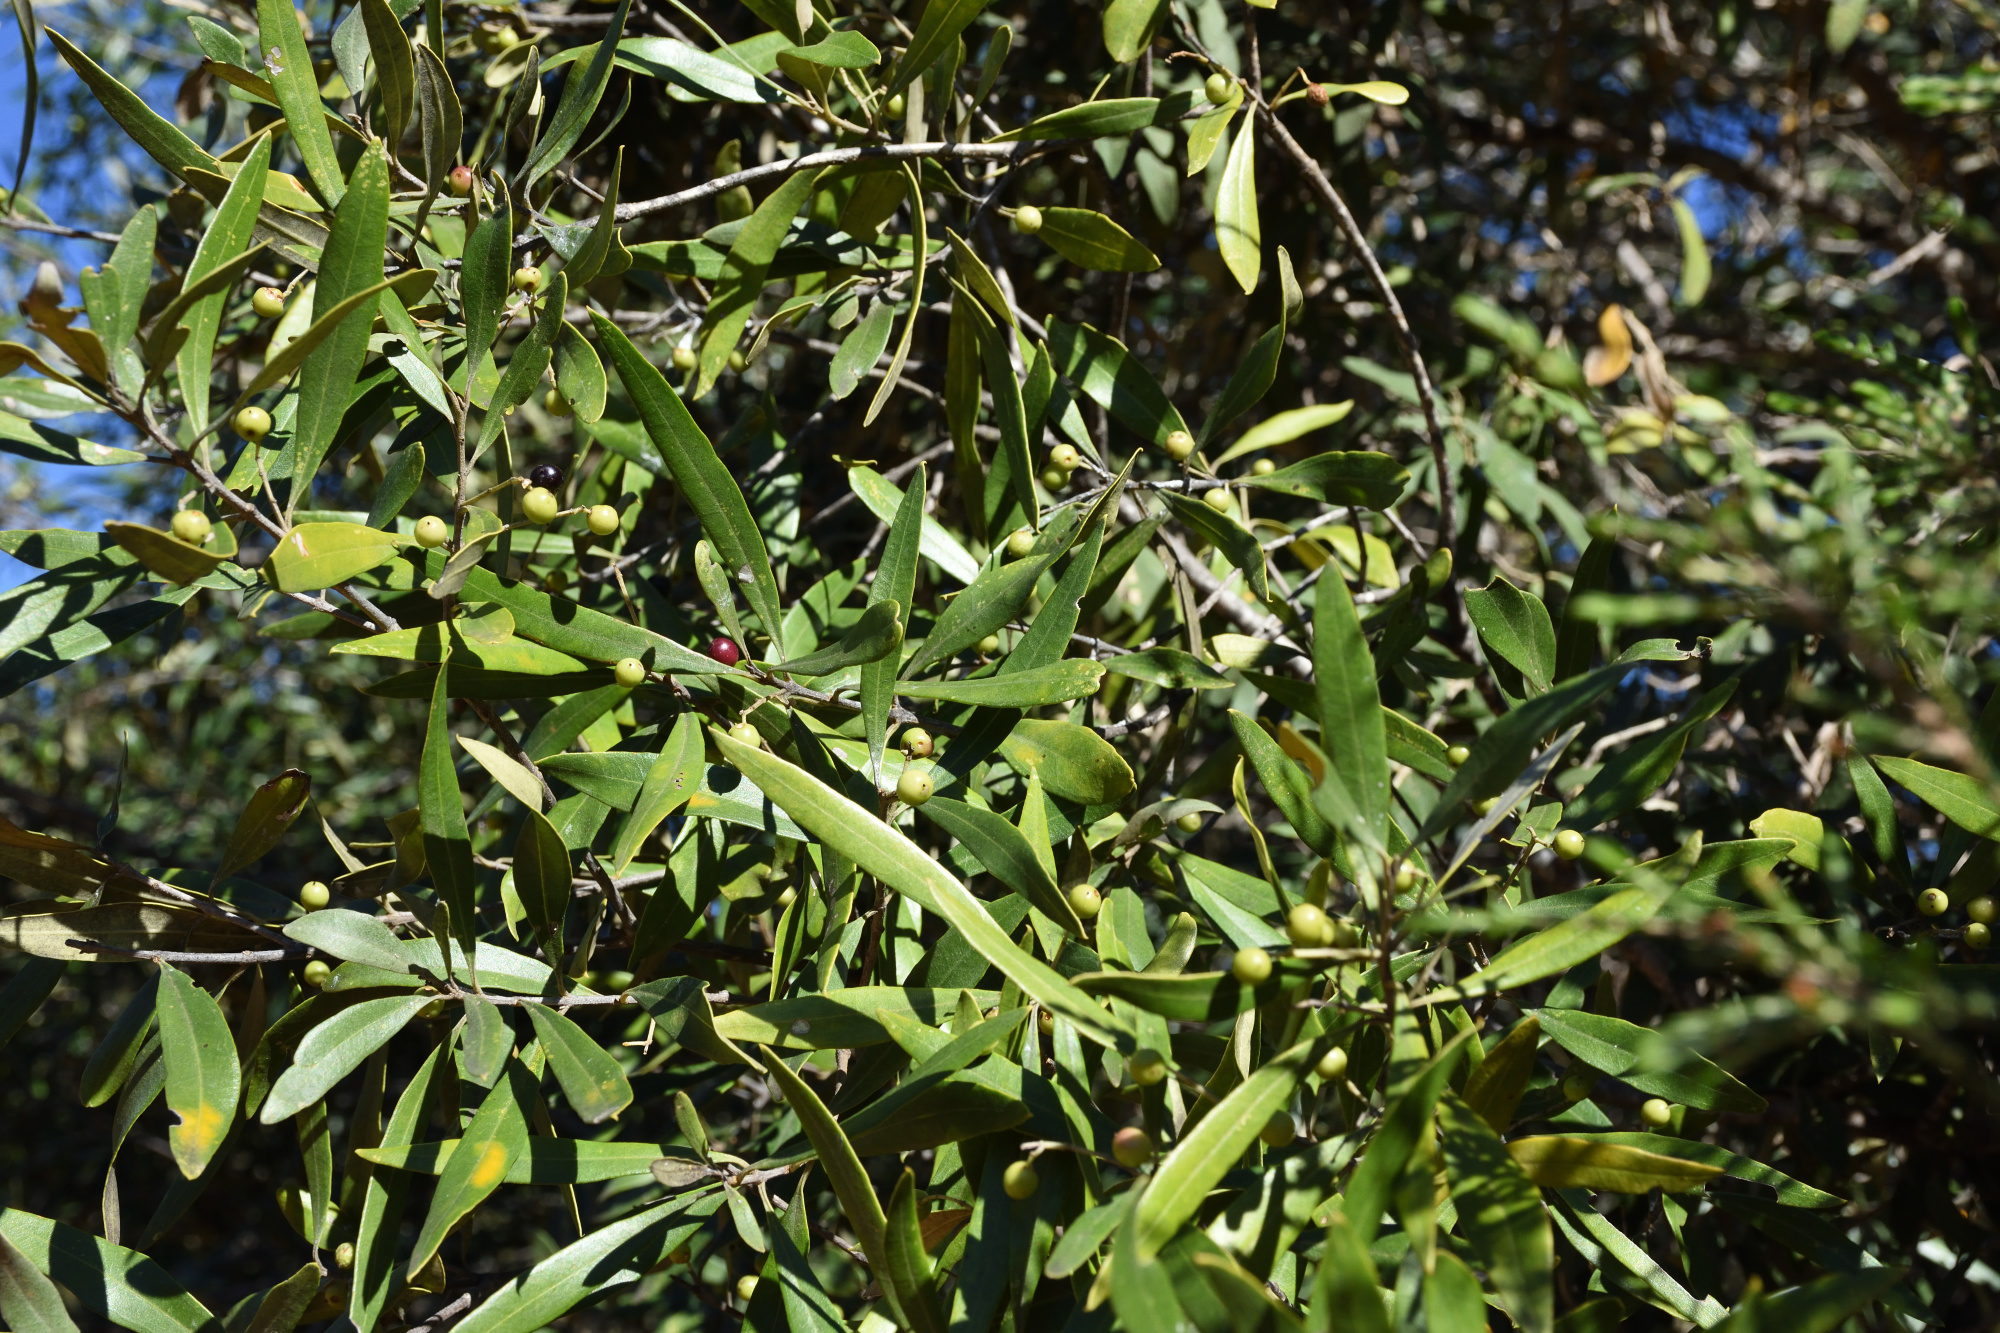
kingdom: Plantae
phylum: Tracheophyta
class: Magnoliopsida
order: Lamiales
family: Oleaceae
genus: Olea
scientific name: Olea europaea
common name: Olive
